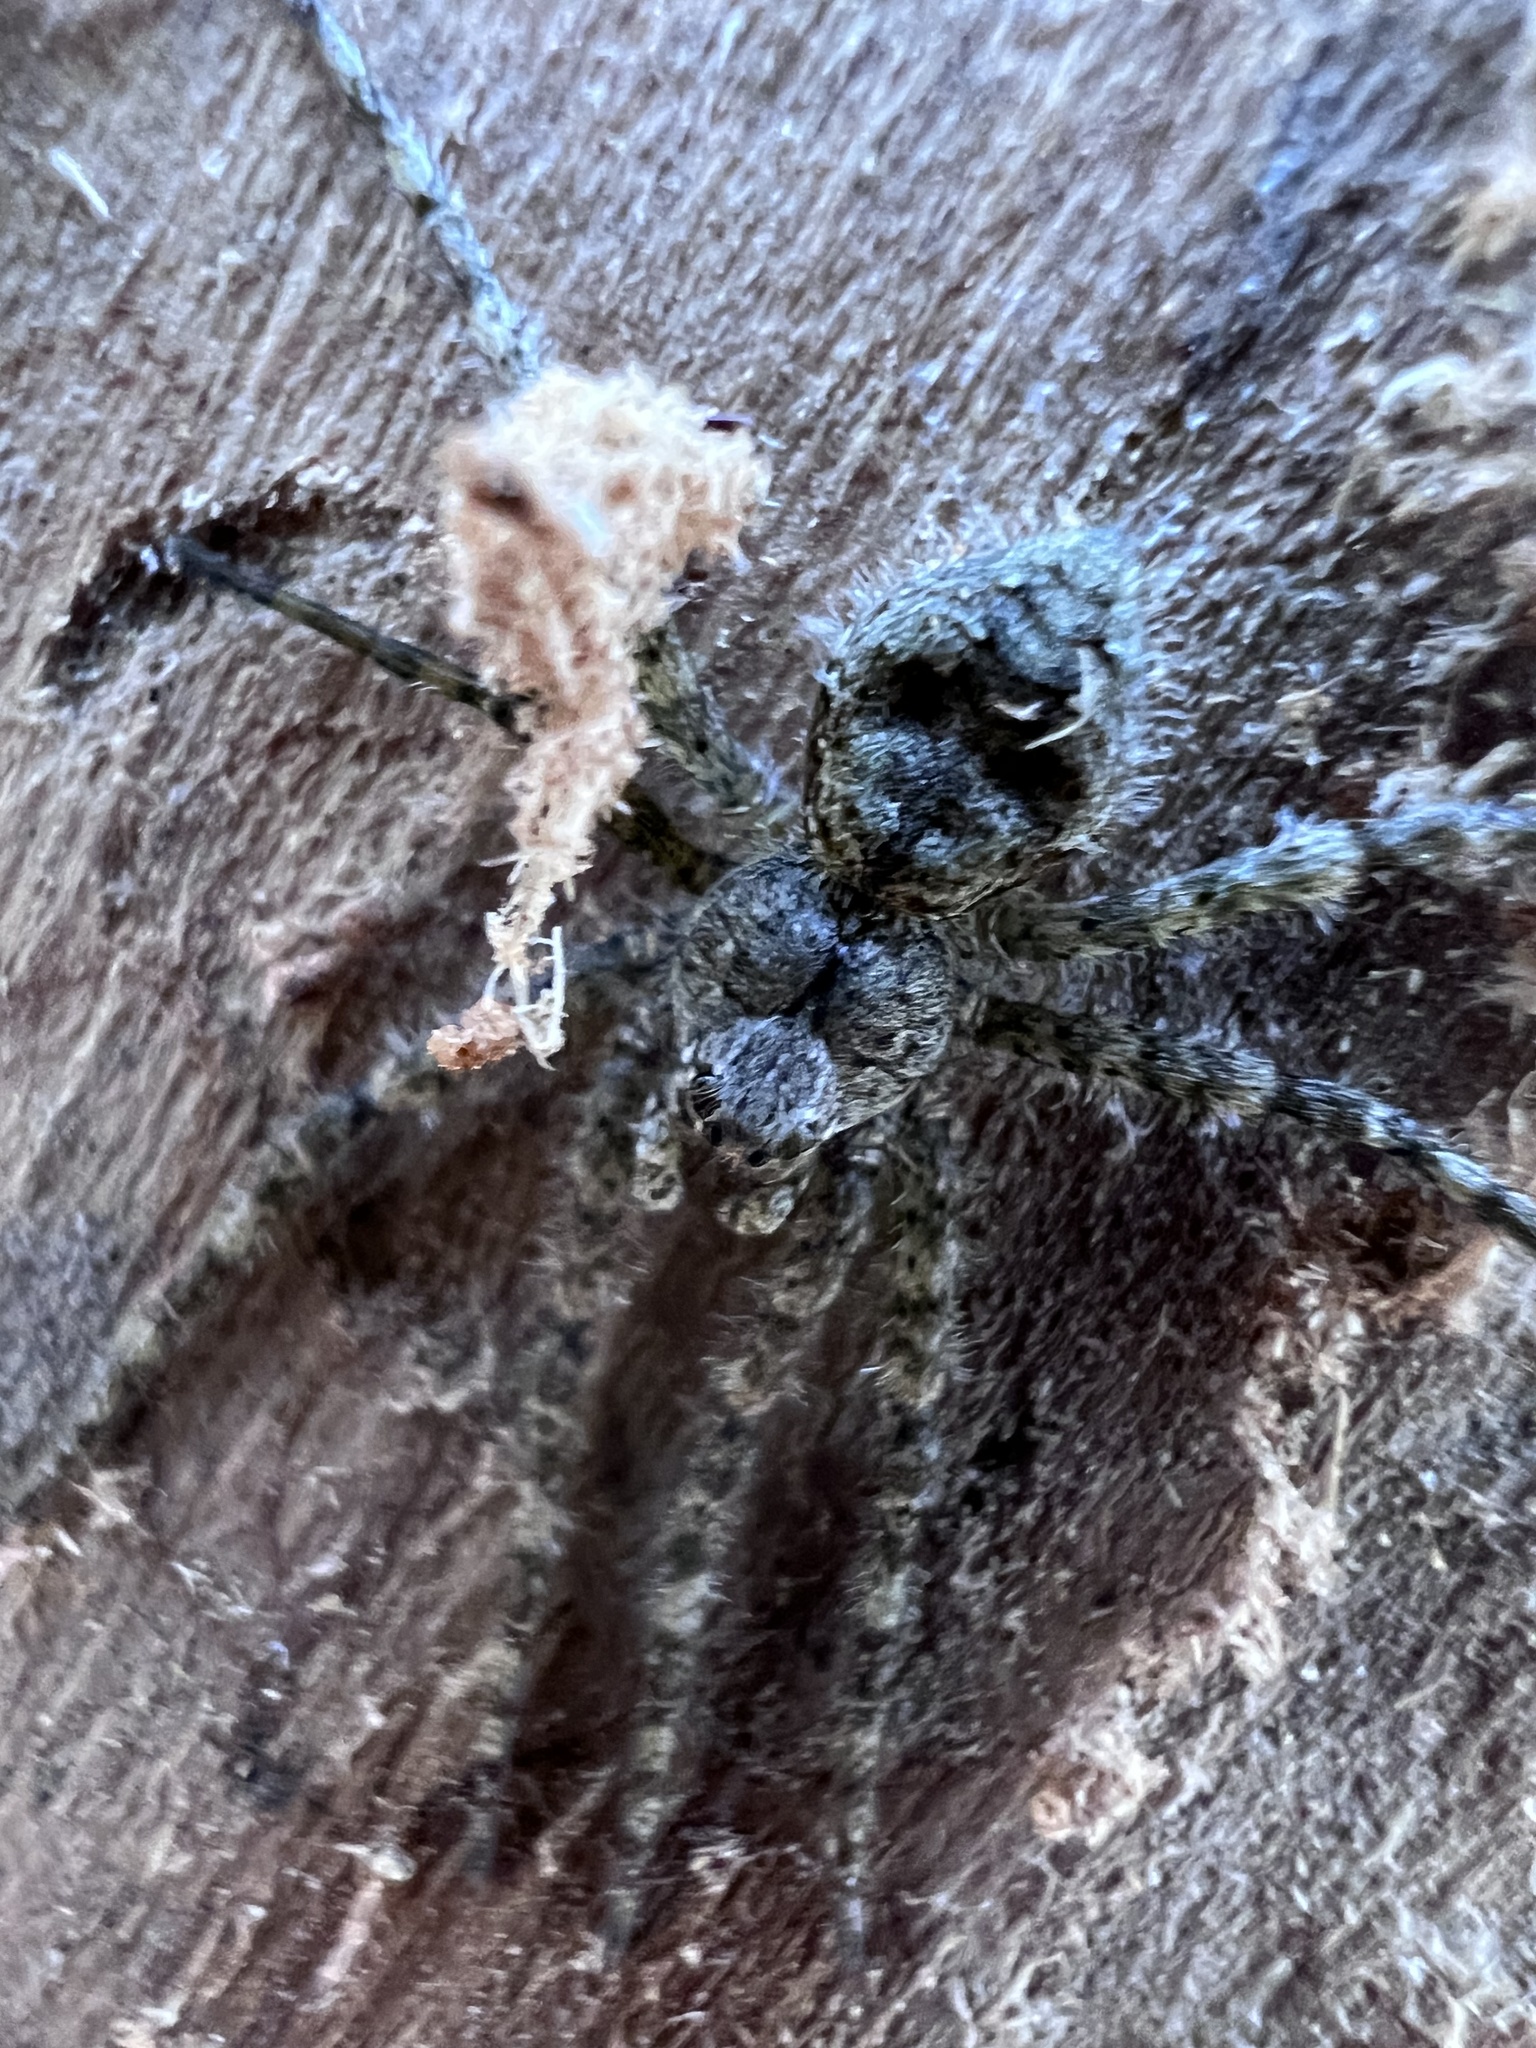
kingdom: Animalia
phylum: Arthropoda
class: Arachnida
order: Araneae
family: Pisauridae
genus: Dolomedes
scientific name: Dolomedes albineus
